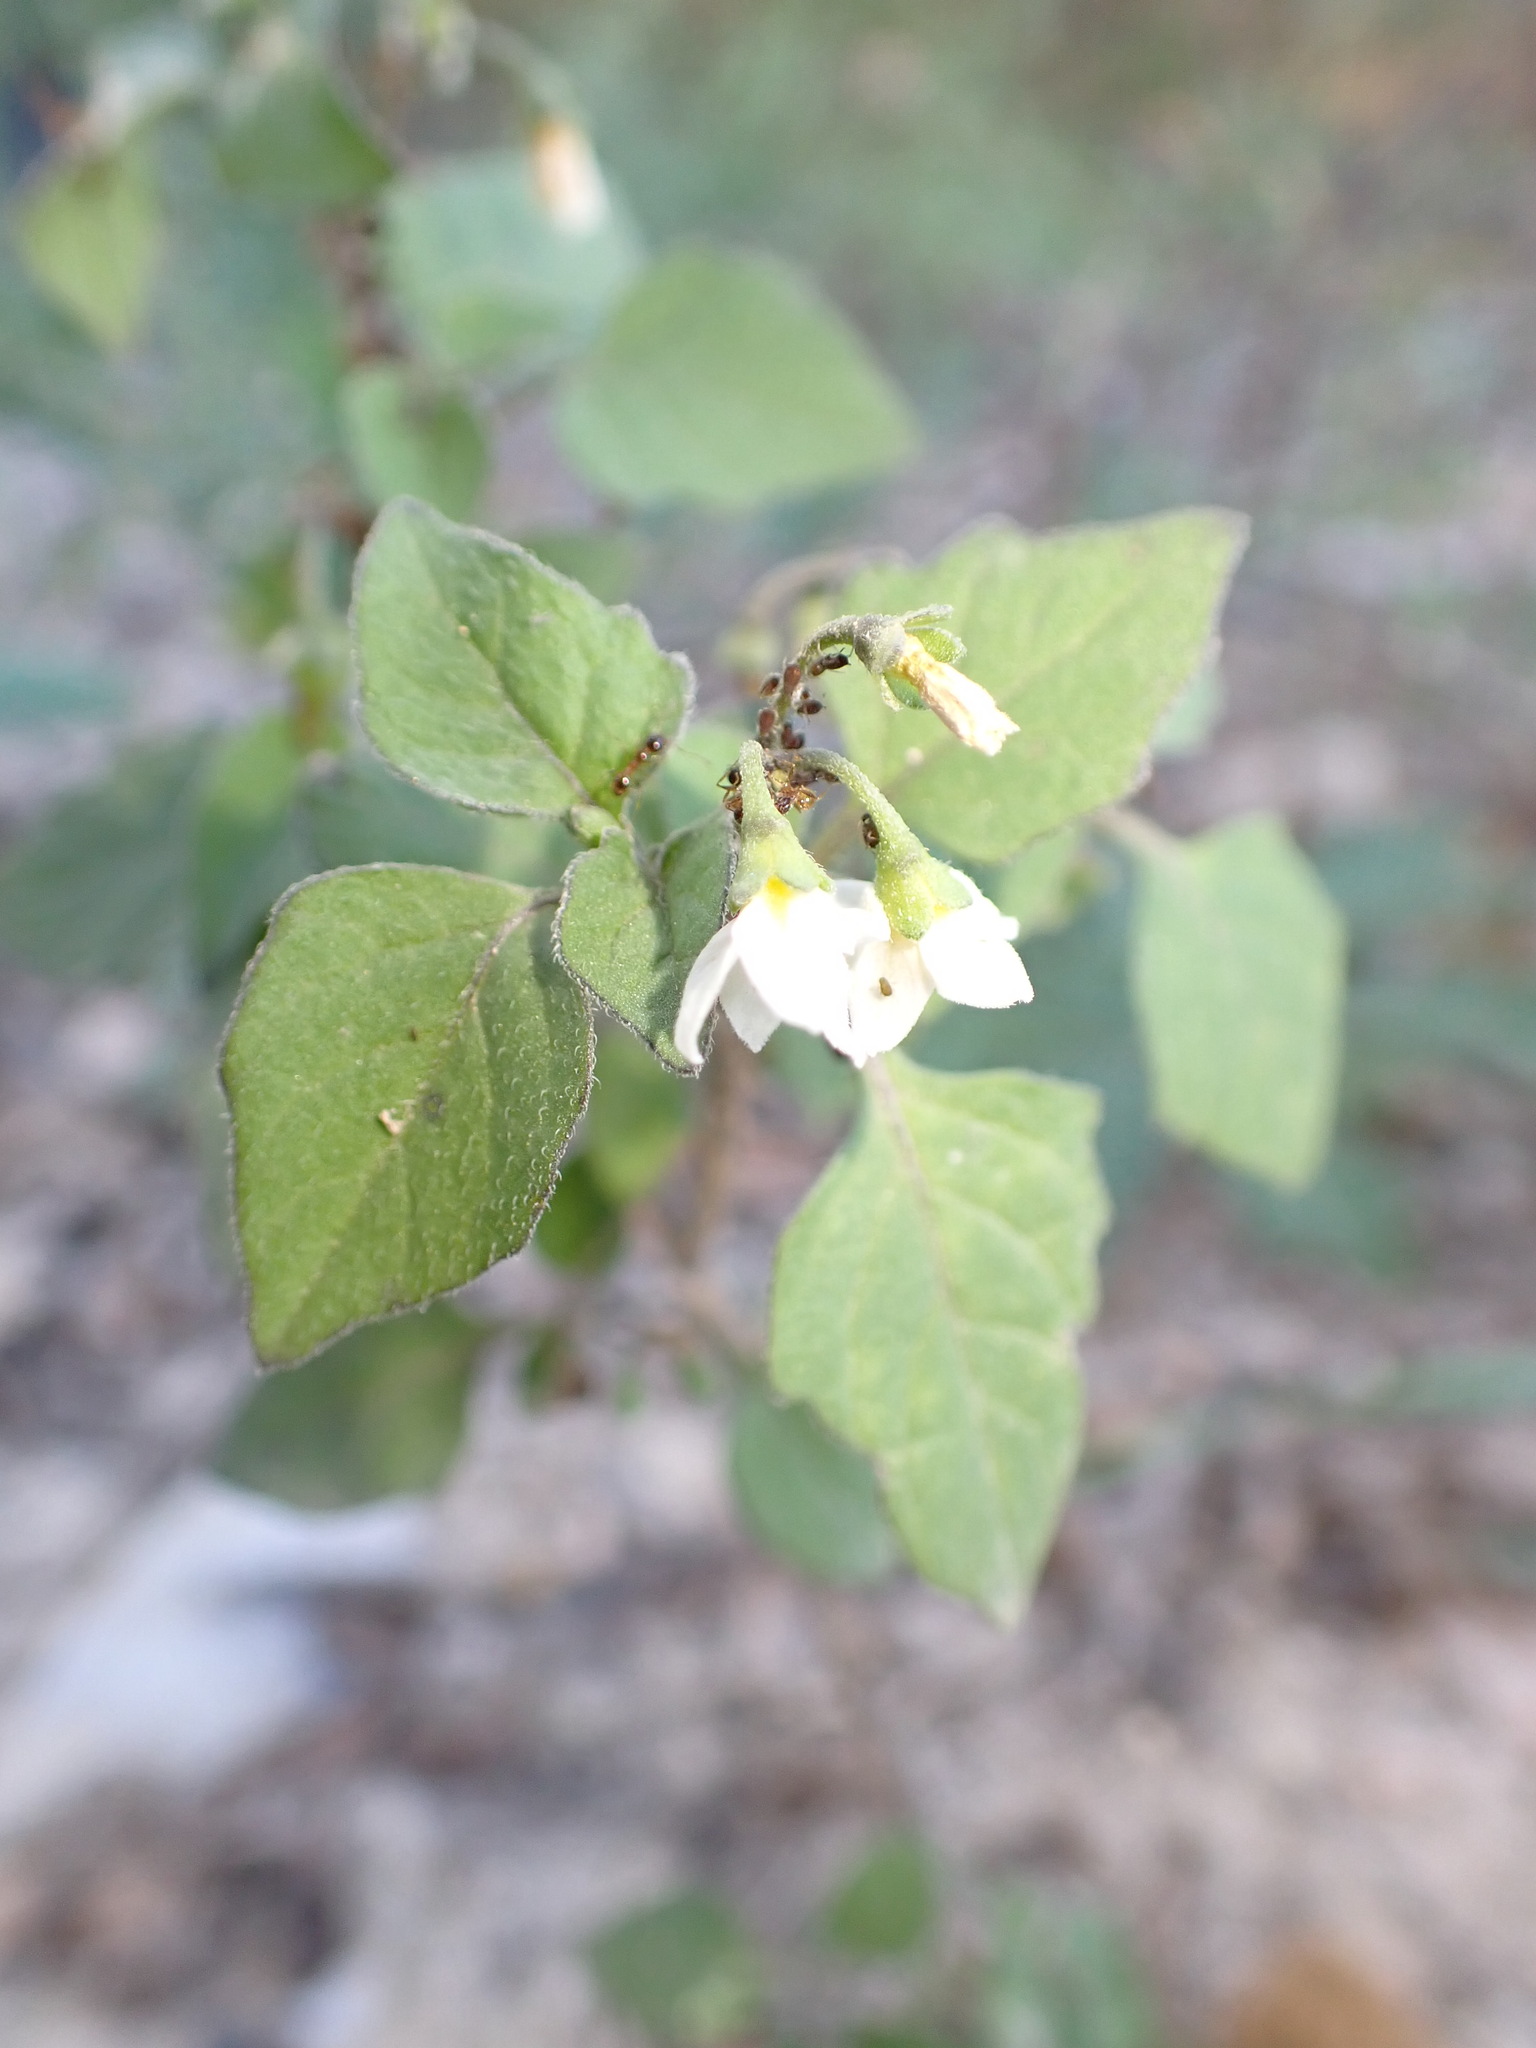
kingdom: Plantae
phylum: Tracheophyta
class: Magnoliopsida
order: Solanales
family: Solanaceae
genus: Solanum
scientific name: Solanum nigrum
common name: Black nightshade
